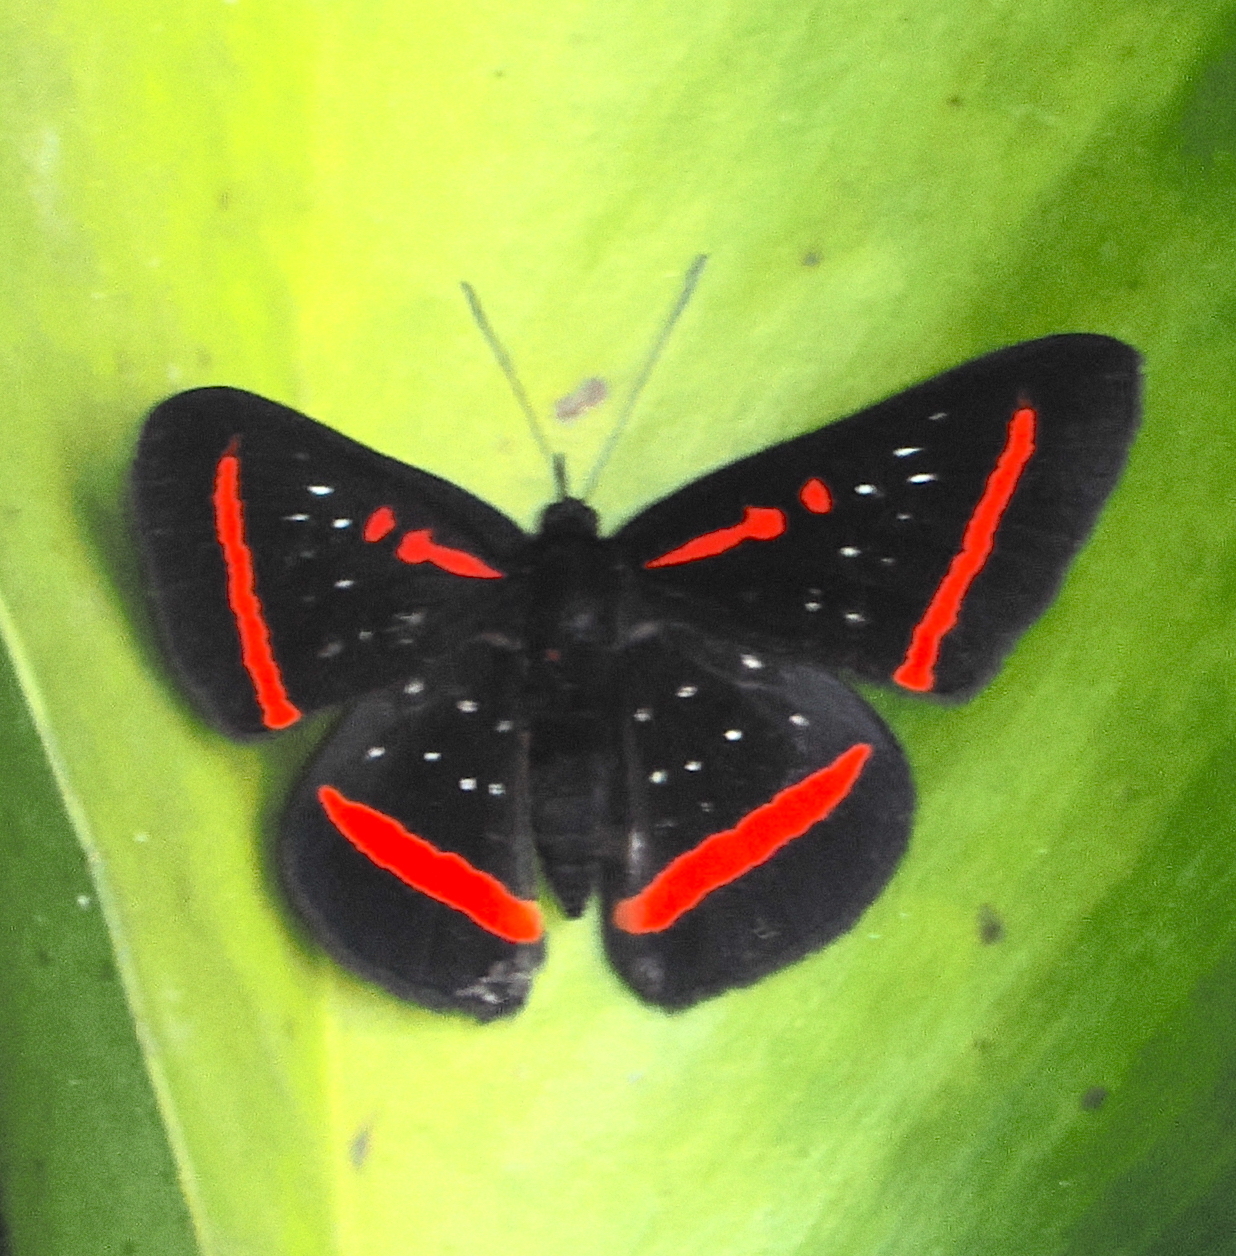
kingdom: Animalia
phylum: Arthropoda
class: Insecta
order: Lepidoptera
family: Riodinidae
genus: Amarynthis
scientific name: Amarynthis meneria
